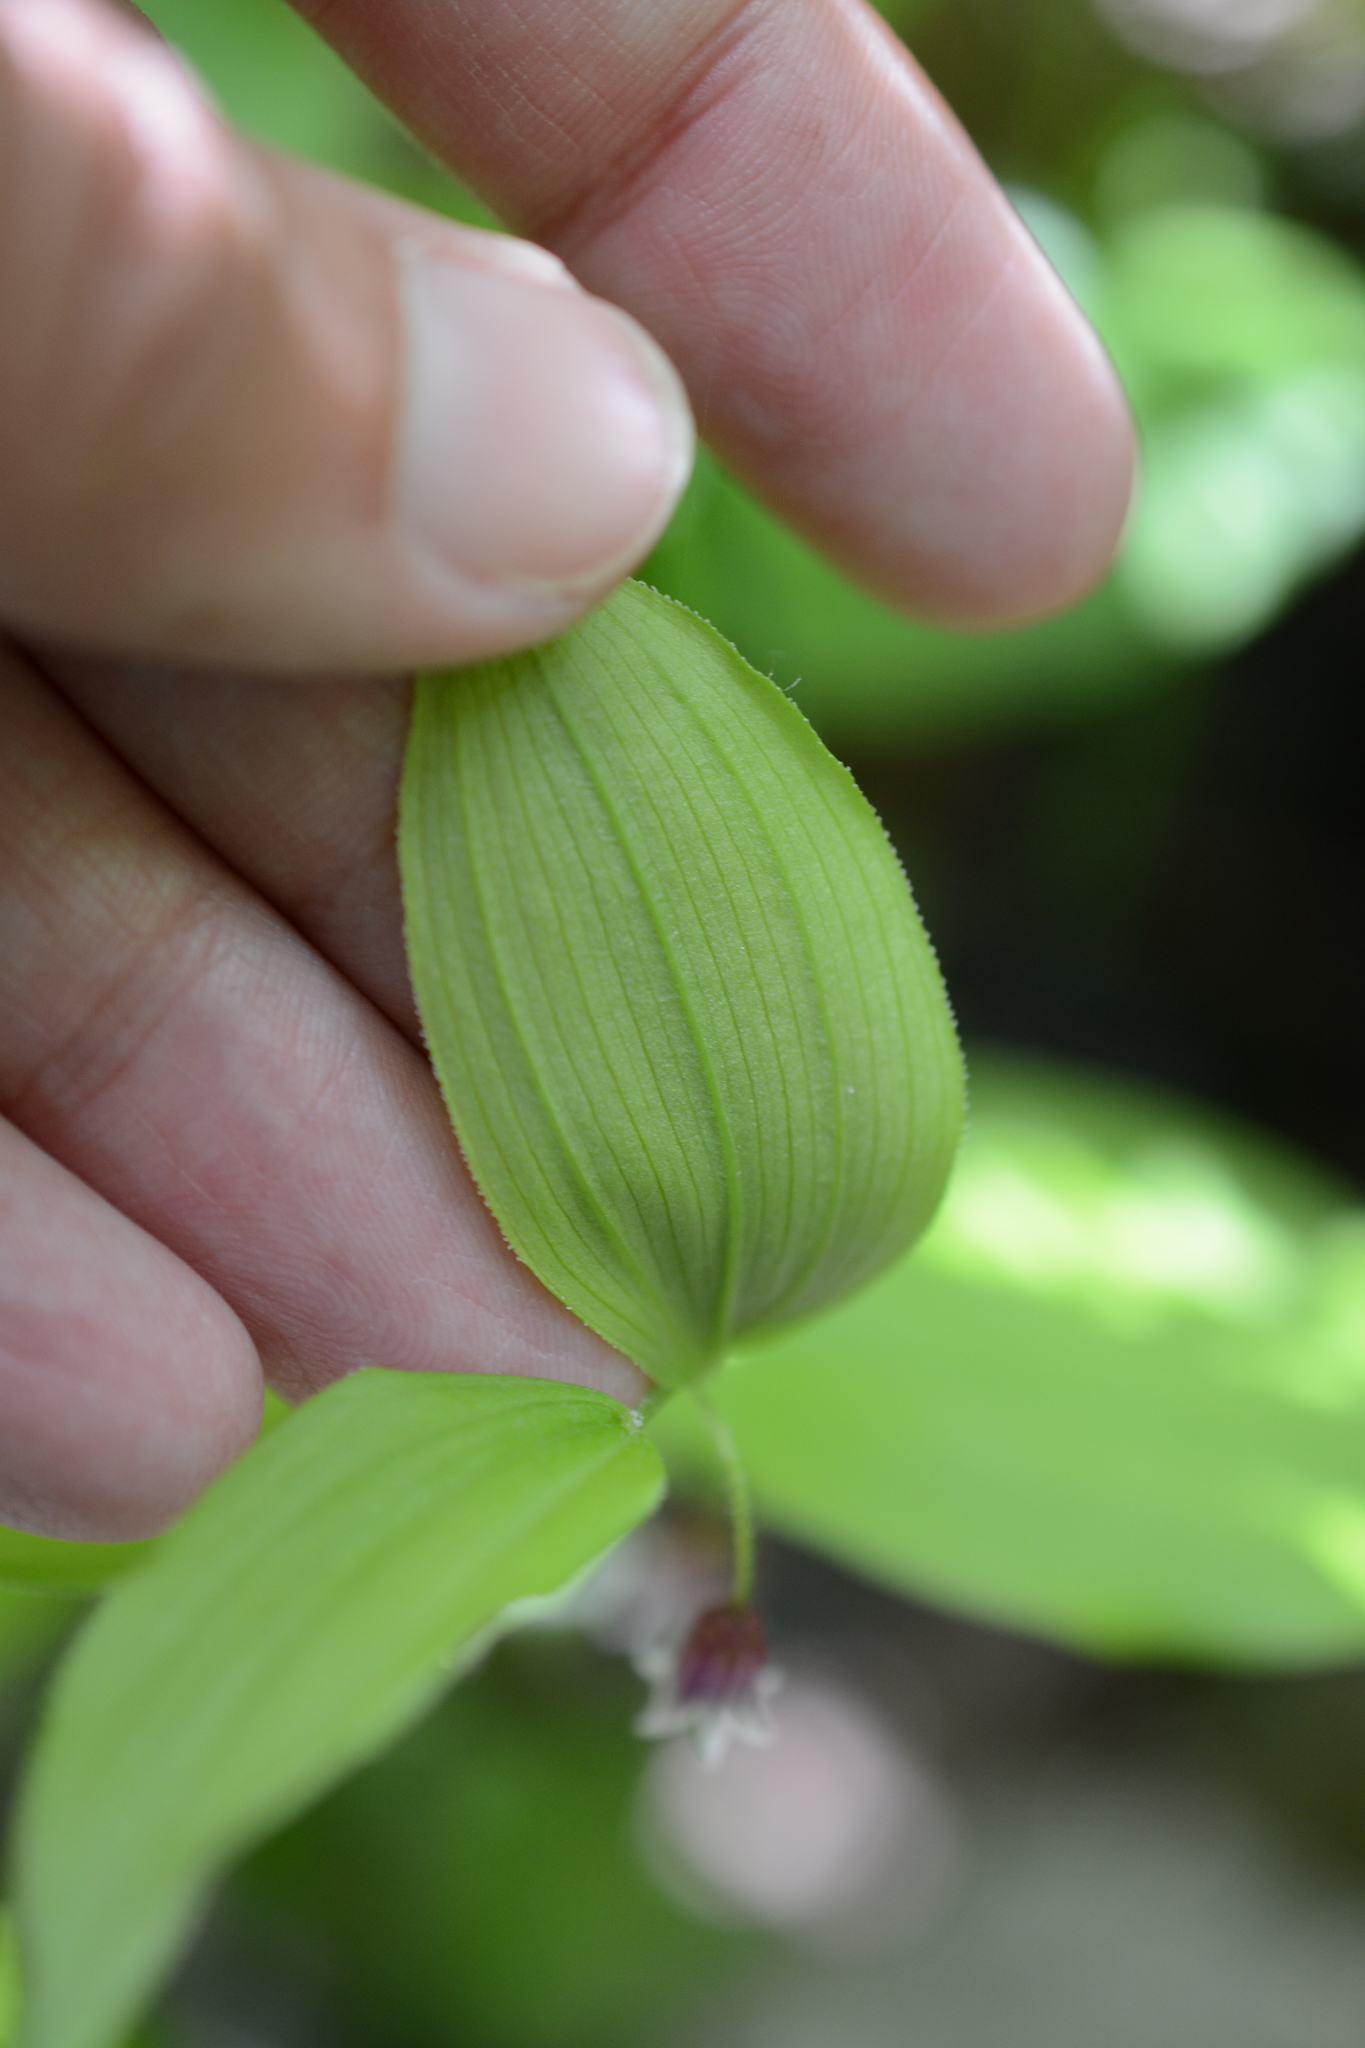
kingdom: Plantae
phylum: Tracheophyta
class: Liliopsida
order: Liliales
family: Liliaceae
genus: Streptopus
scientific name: Streptopus lanceolatus
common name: Rose mandarin
